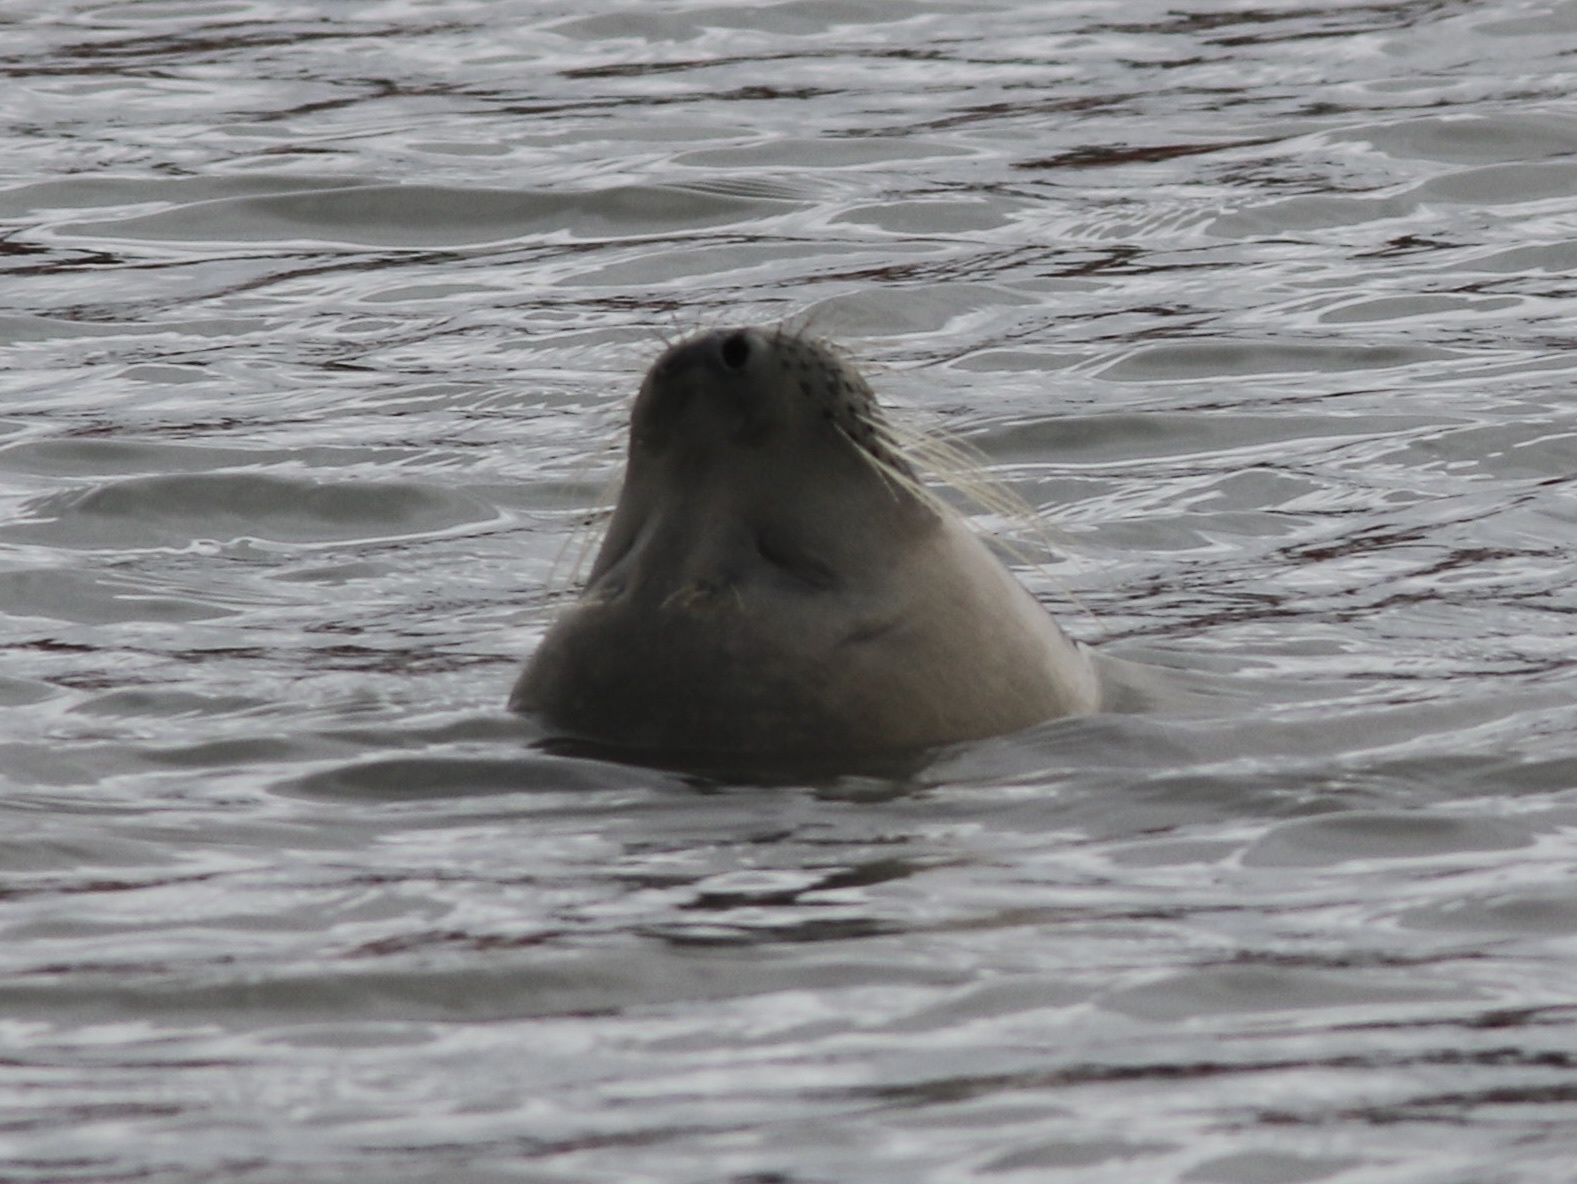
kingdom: Animalia
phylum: Chordata
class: Mammalia
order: Carnivora
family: Phocidae
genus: Phoca
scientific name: Phoca vitulina
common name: Harbor seal
